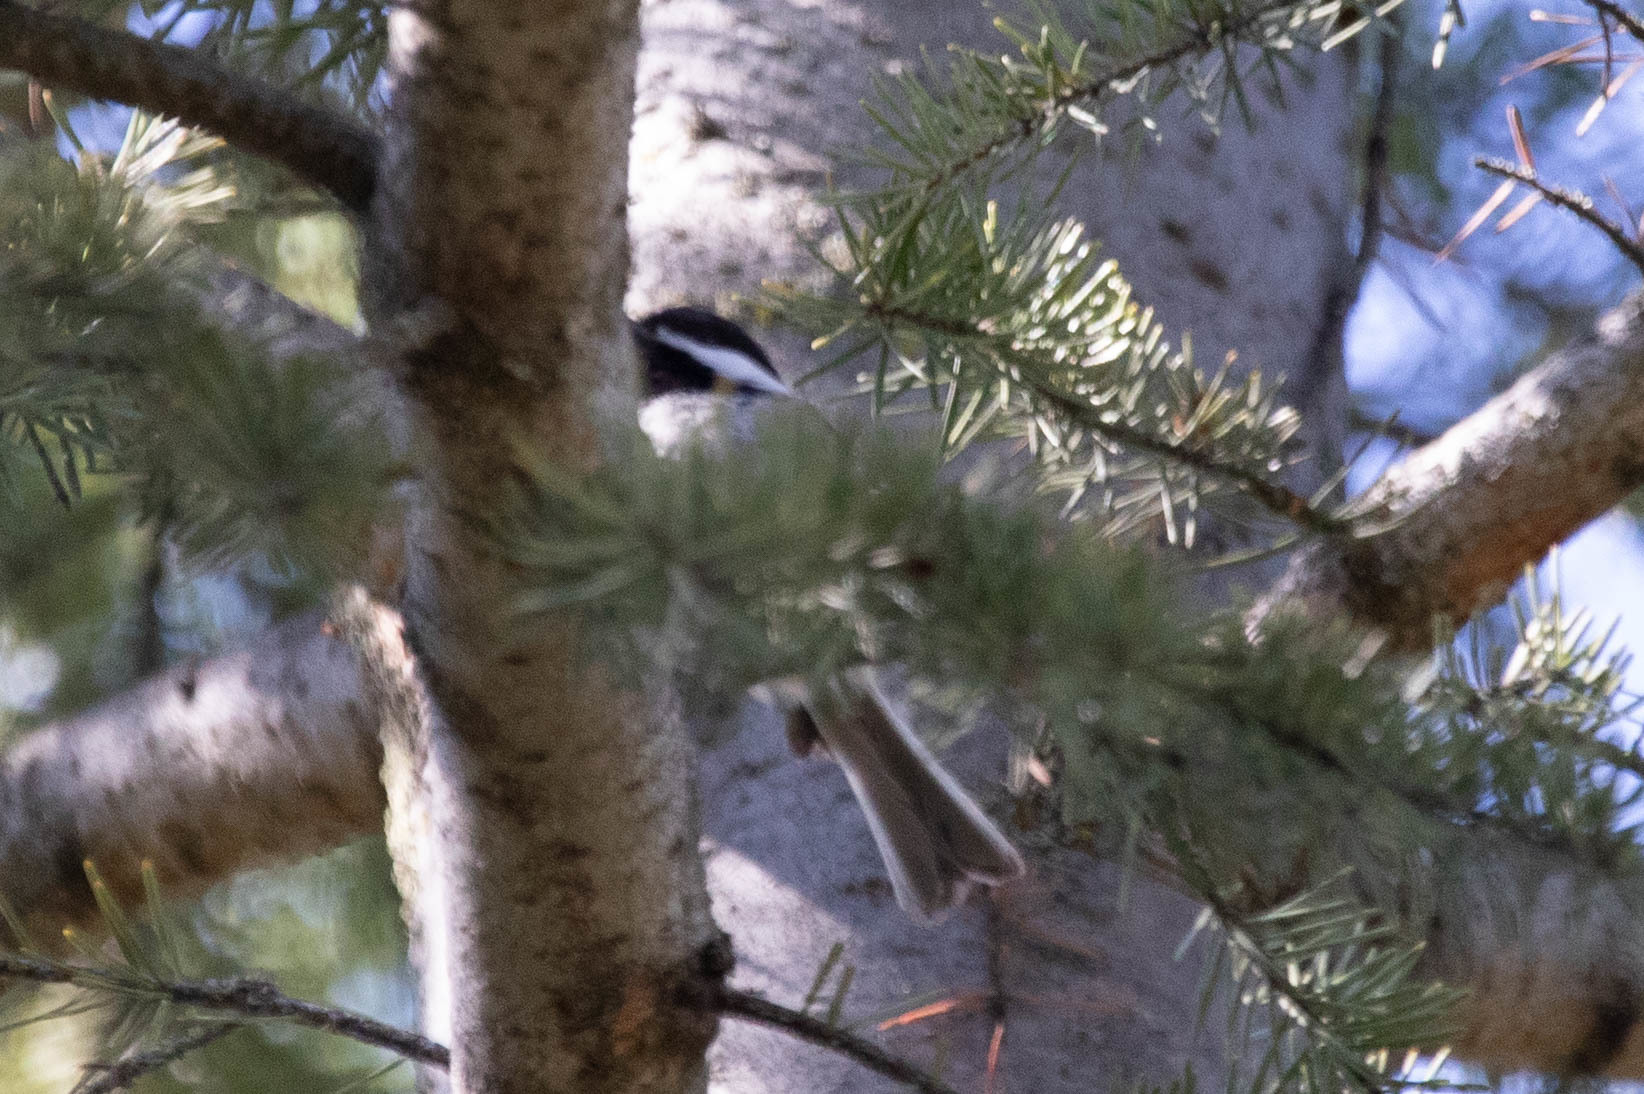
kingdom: Animalia
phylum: Chordata
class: Aves
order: Passeriformes
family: Paridae
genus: Poecile
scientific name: Poecile atricapillus
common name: Black-capped chickadee
